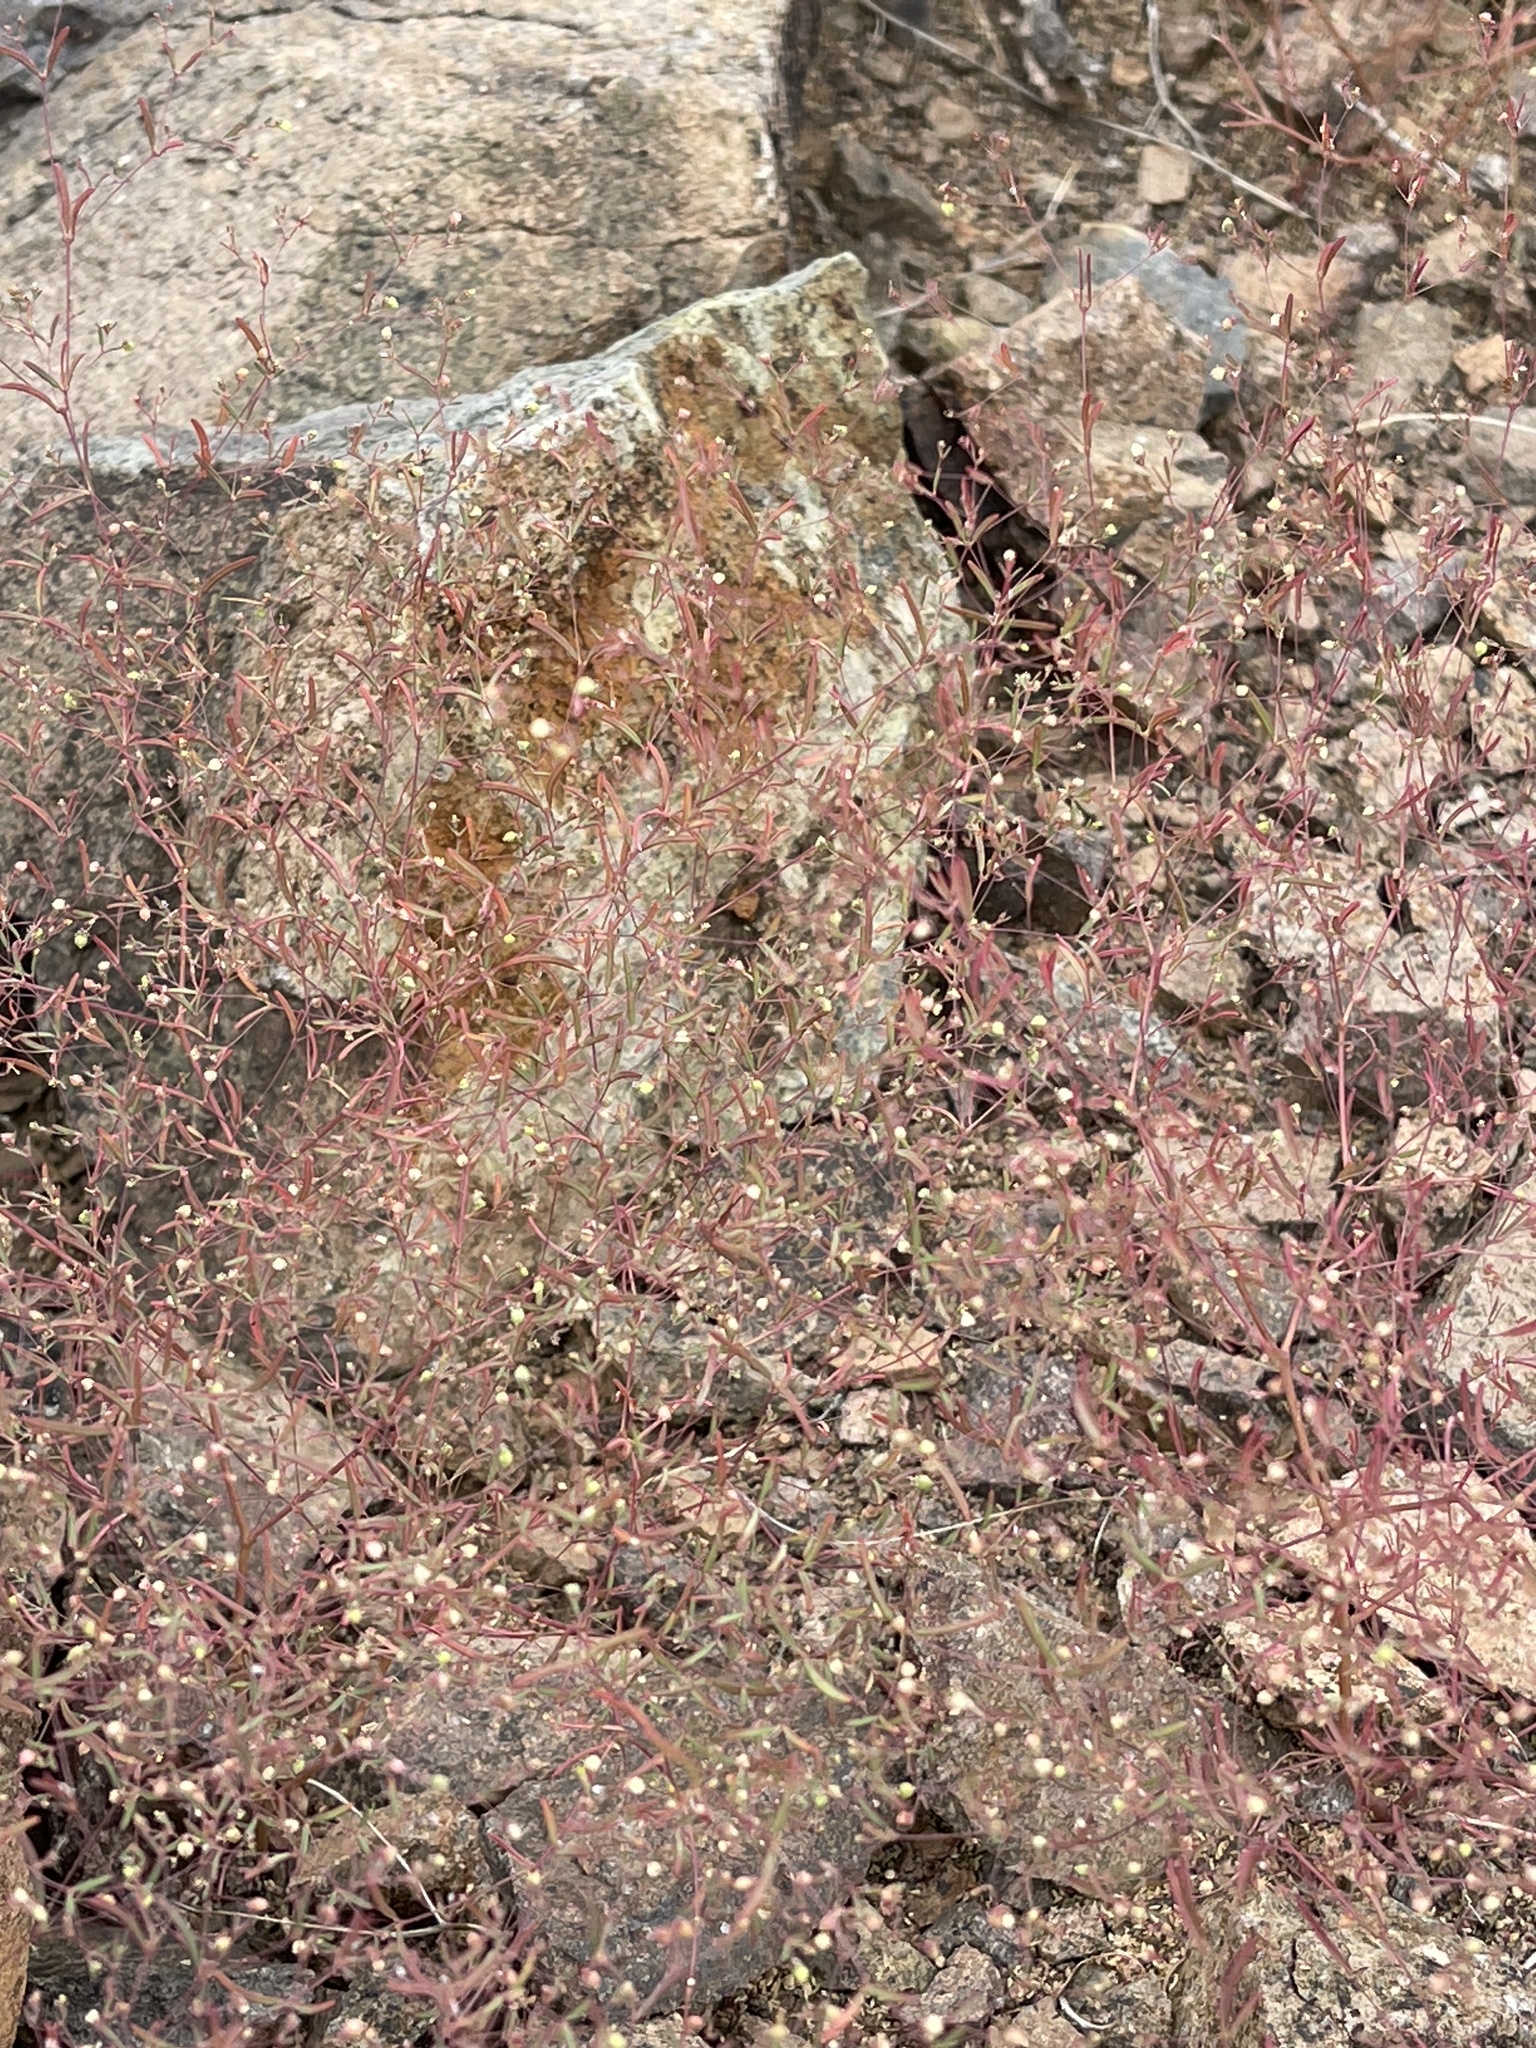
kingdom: Plantae
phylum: Tracheophyta
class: Magnoliopsida
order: Malpighiales
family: Euphorbiaceae
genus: Euphorbia
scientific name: Euphorbia gracillima
